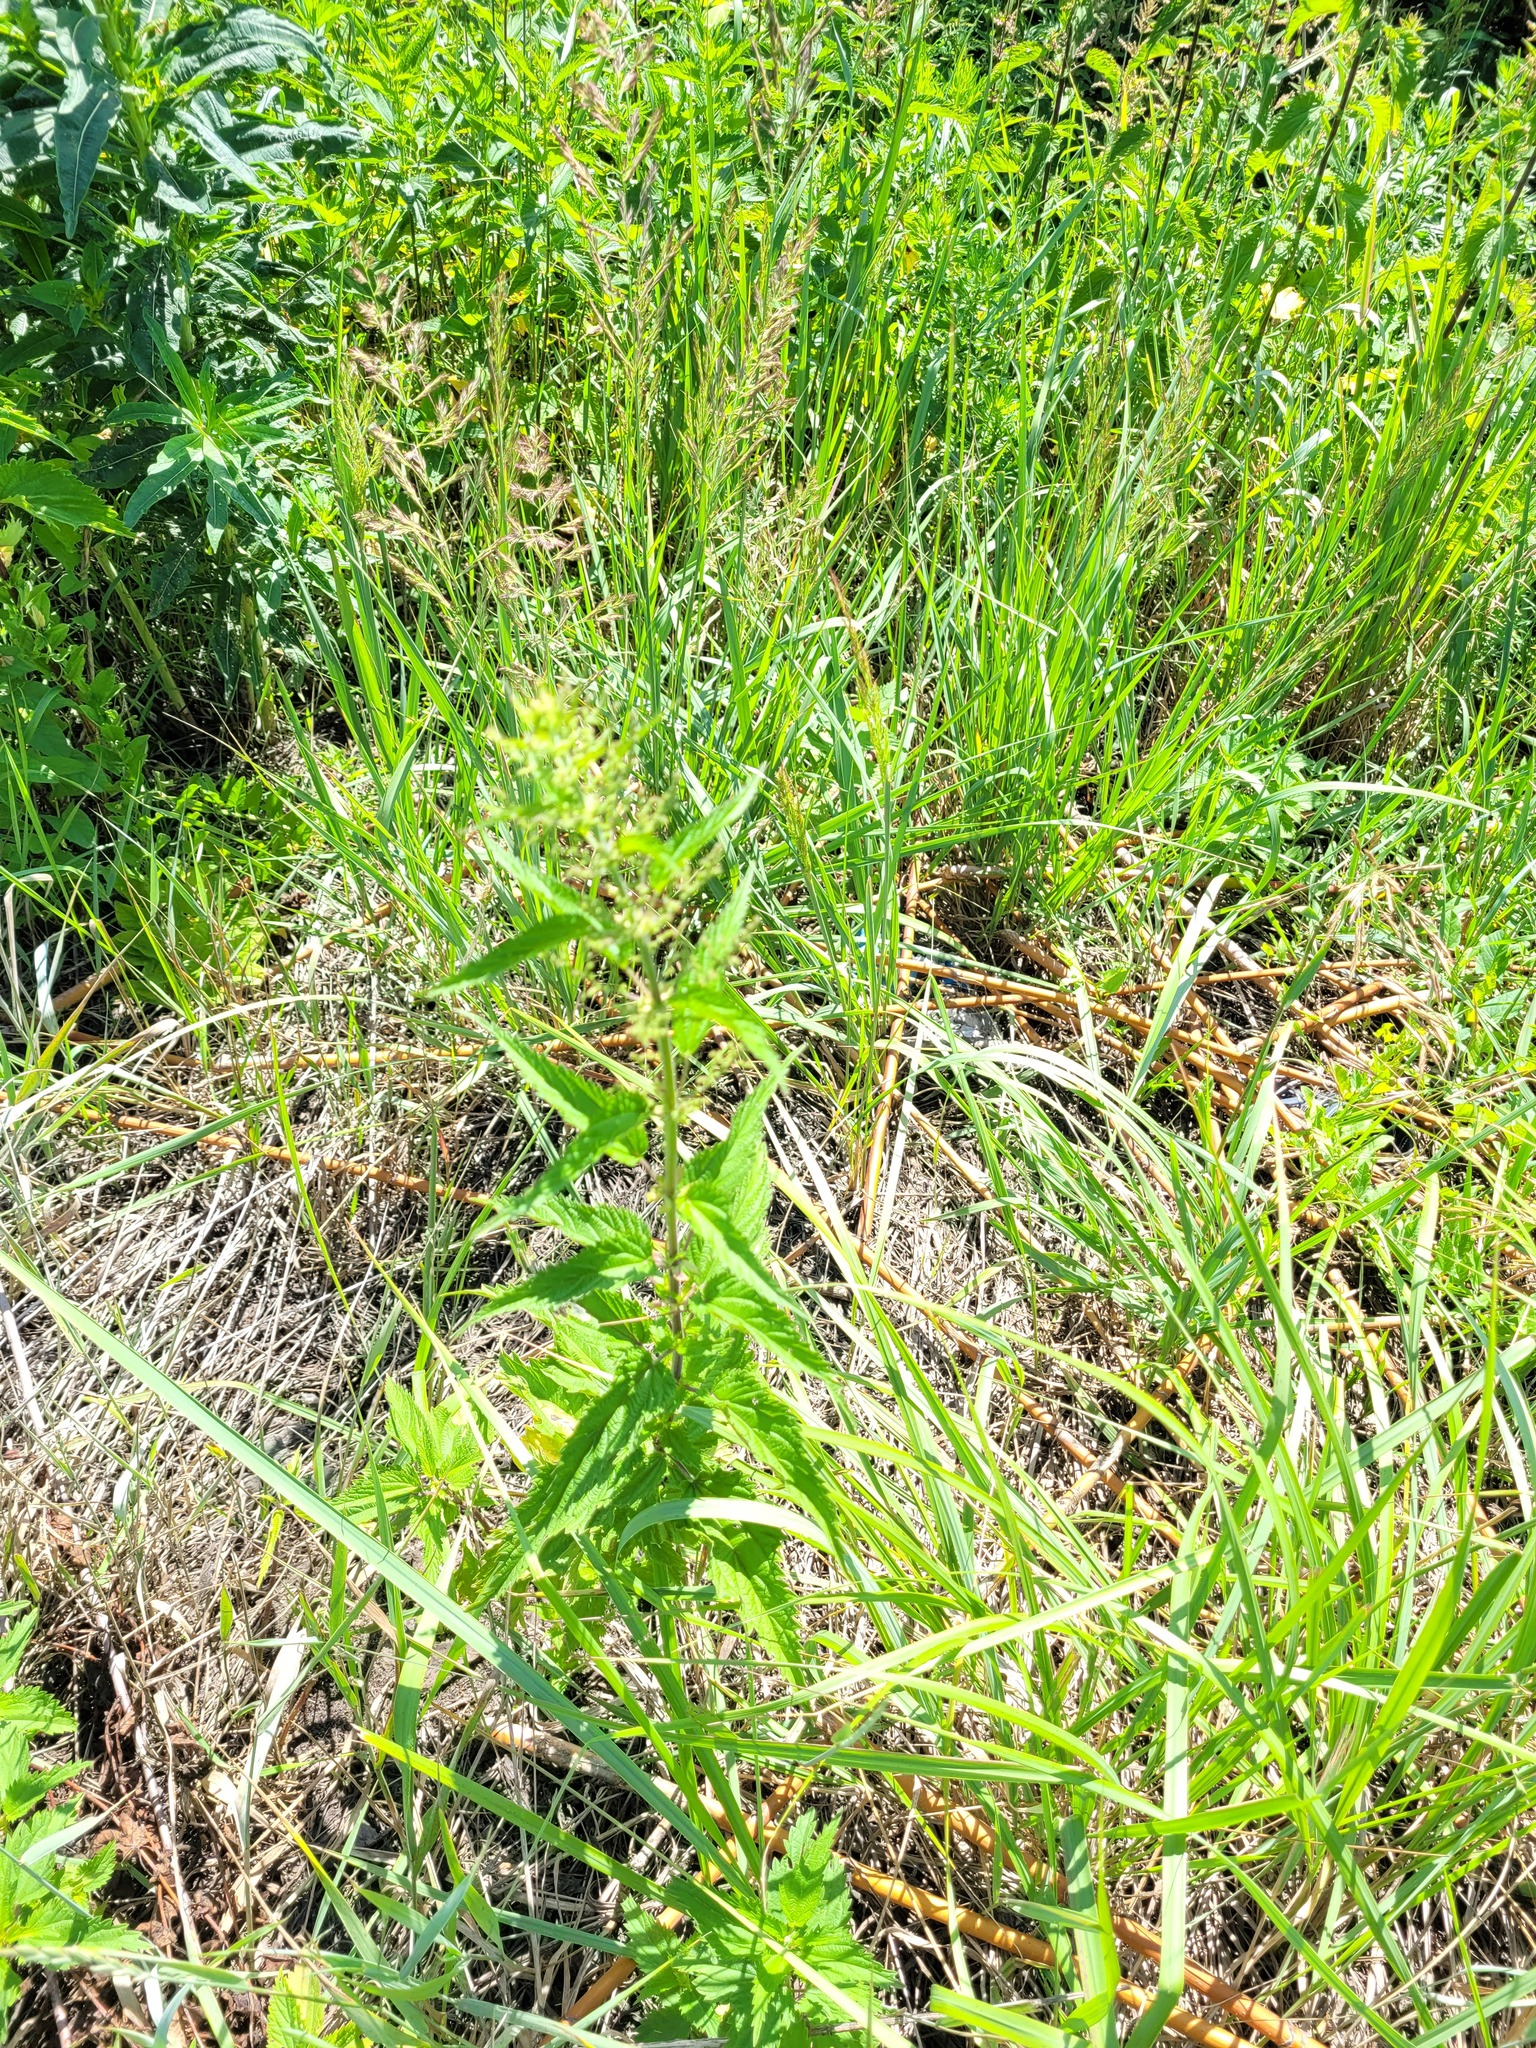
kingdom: Plantae
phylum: Tracheophyta
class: Magnoliopsida
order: Rosales
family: Urticaceae
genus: Urtica
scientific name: Urtica dioica
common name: Common nettle
